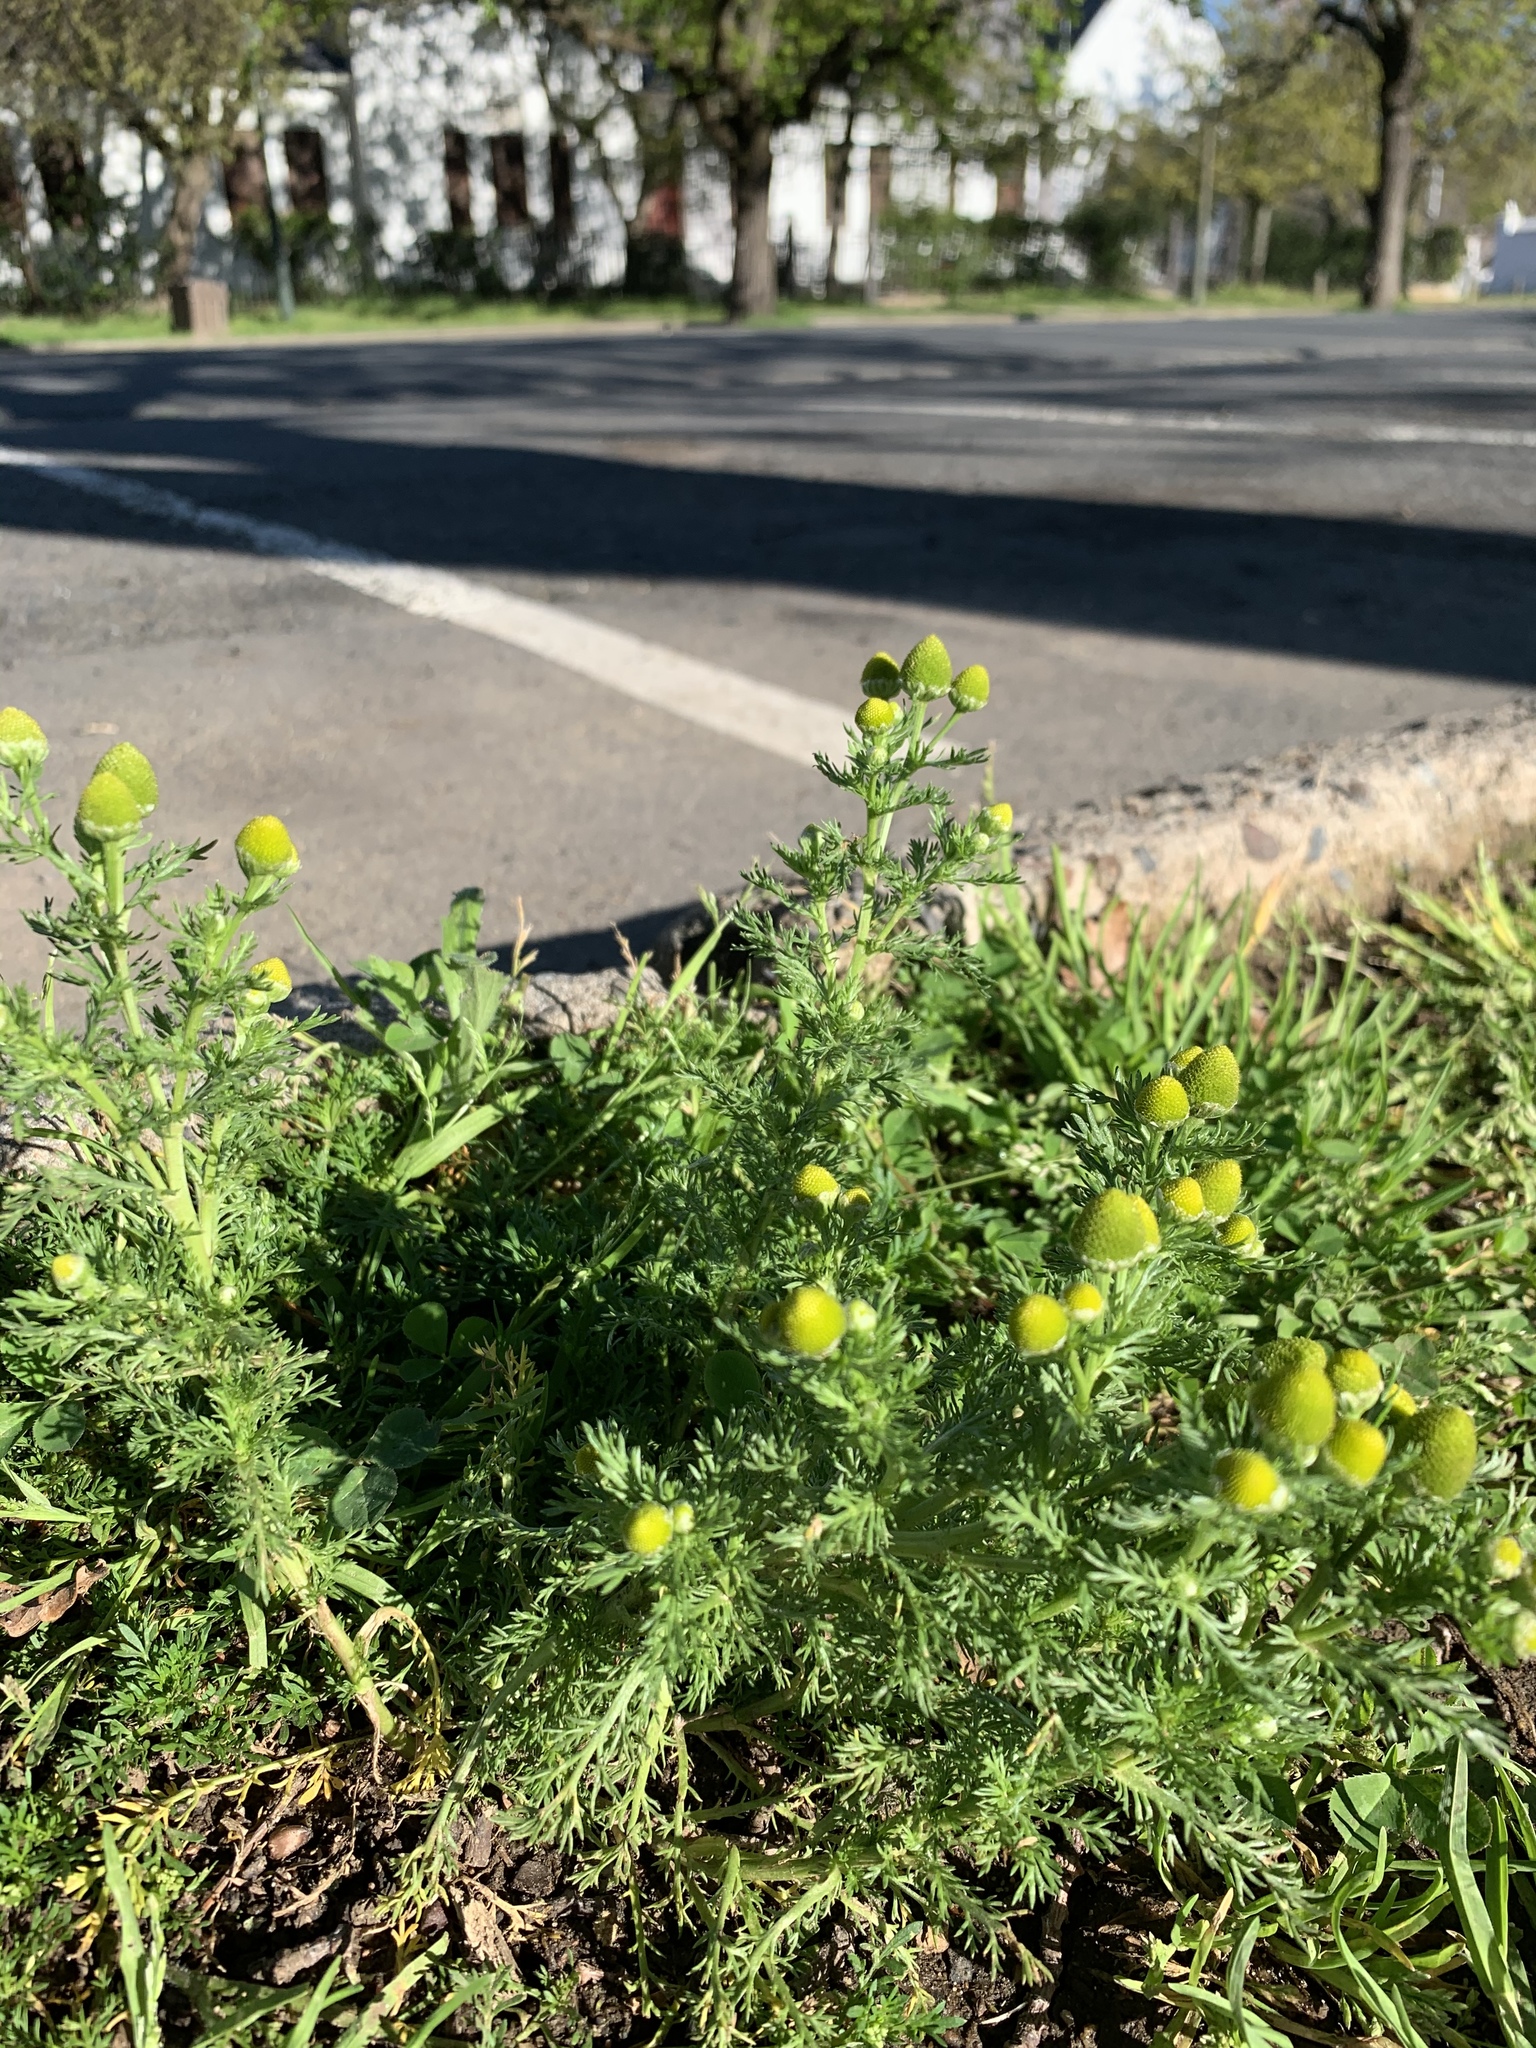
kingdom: Plantae
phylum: Tracheophyta
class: Magnoliopsida
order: Asterales
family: Asteraceae
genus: Matricaria
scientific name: Matricaria discoidea
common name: Disc mayweed
